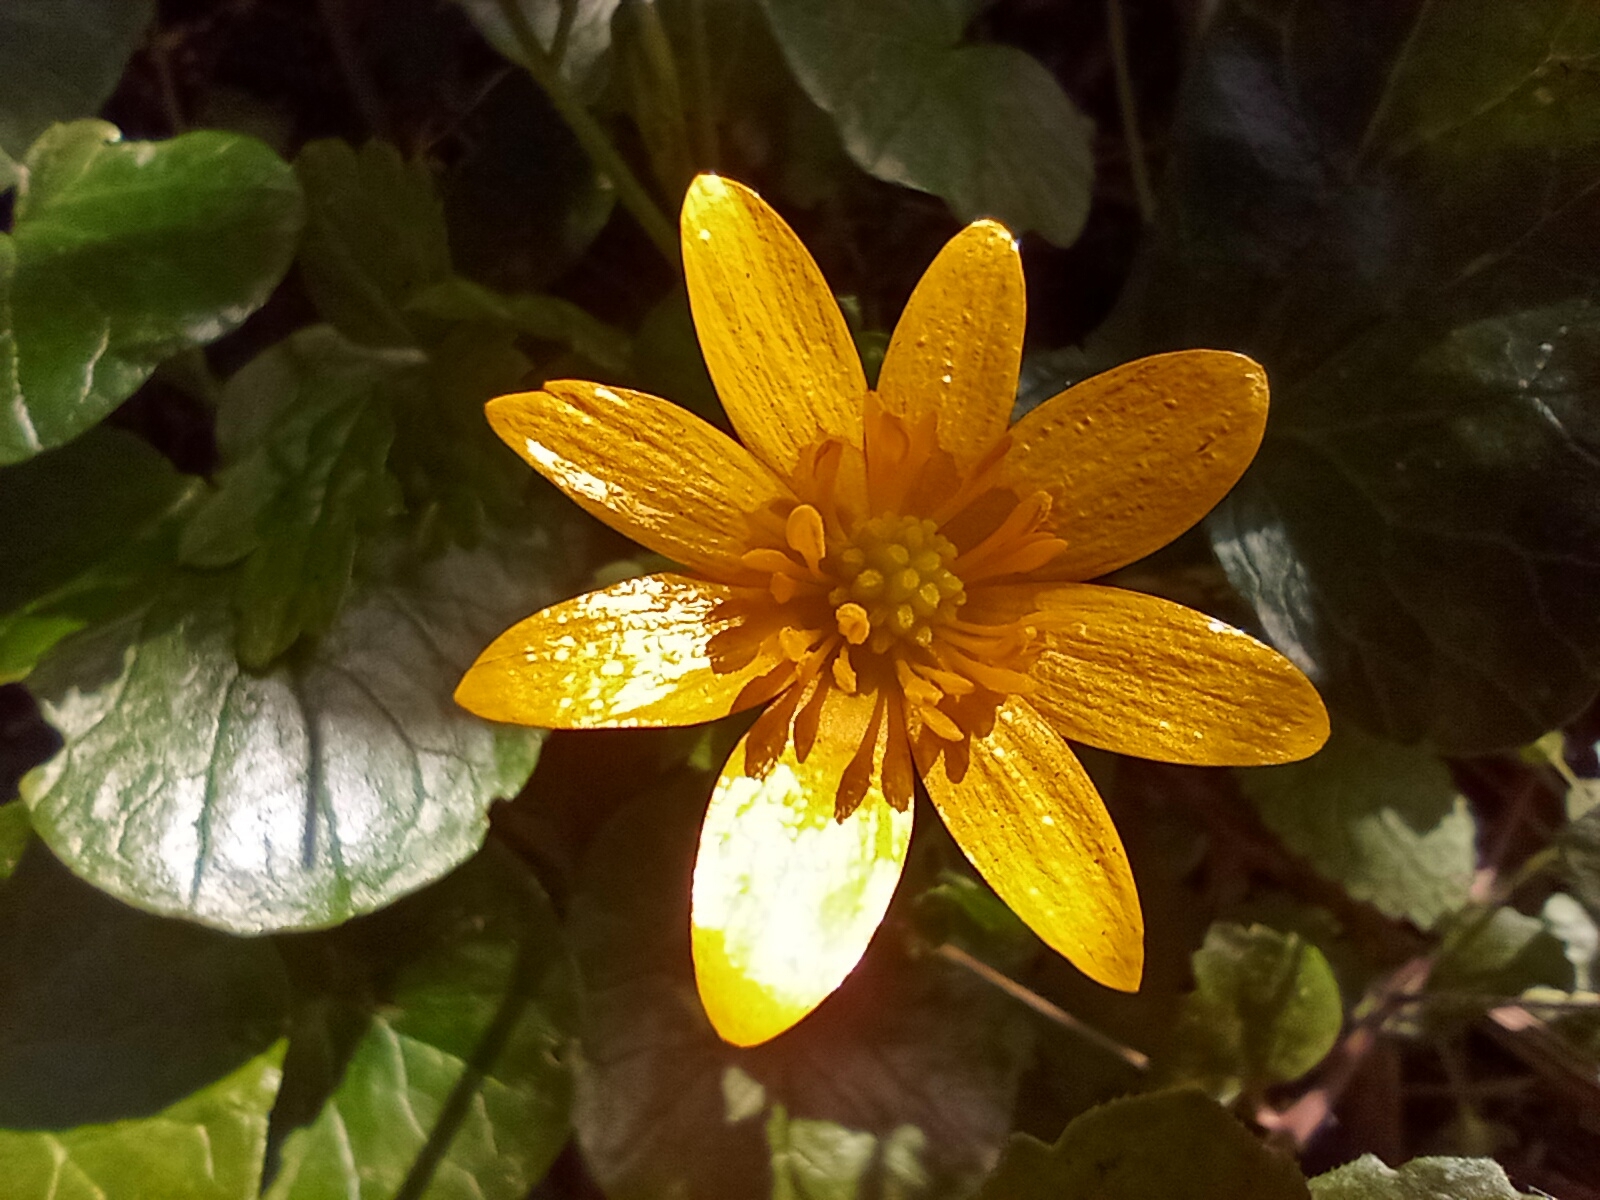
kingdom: Plantae
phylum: Tracheophyta
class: Magnoliopsida
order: Ranunculales
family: Ranunculaceae
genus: Ficaria
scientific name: Ficaria verna
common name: Lesser celandine
